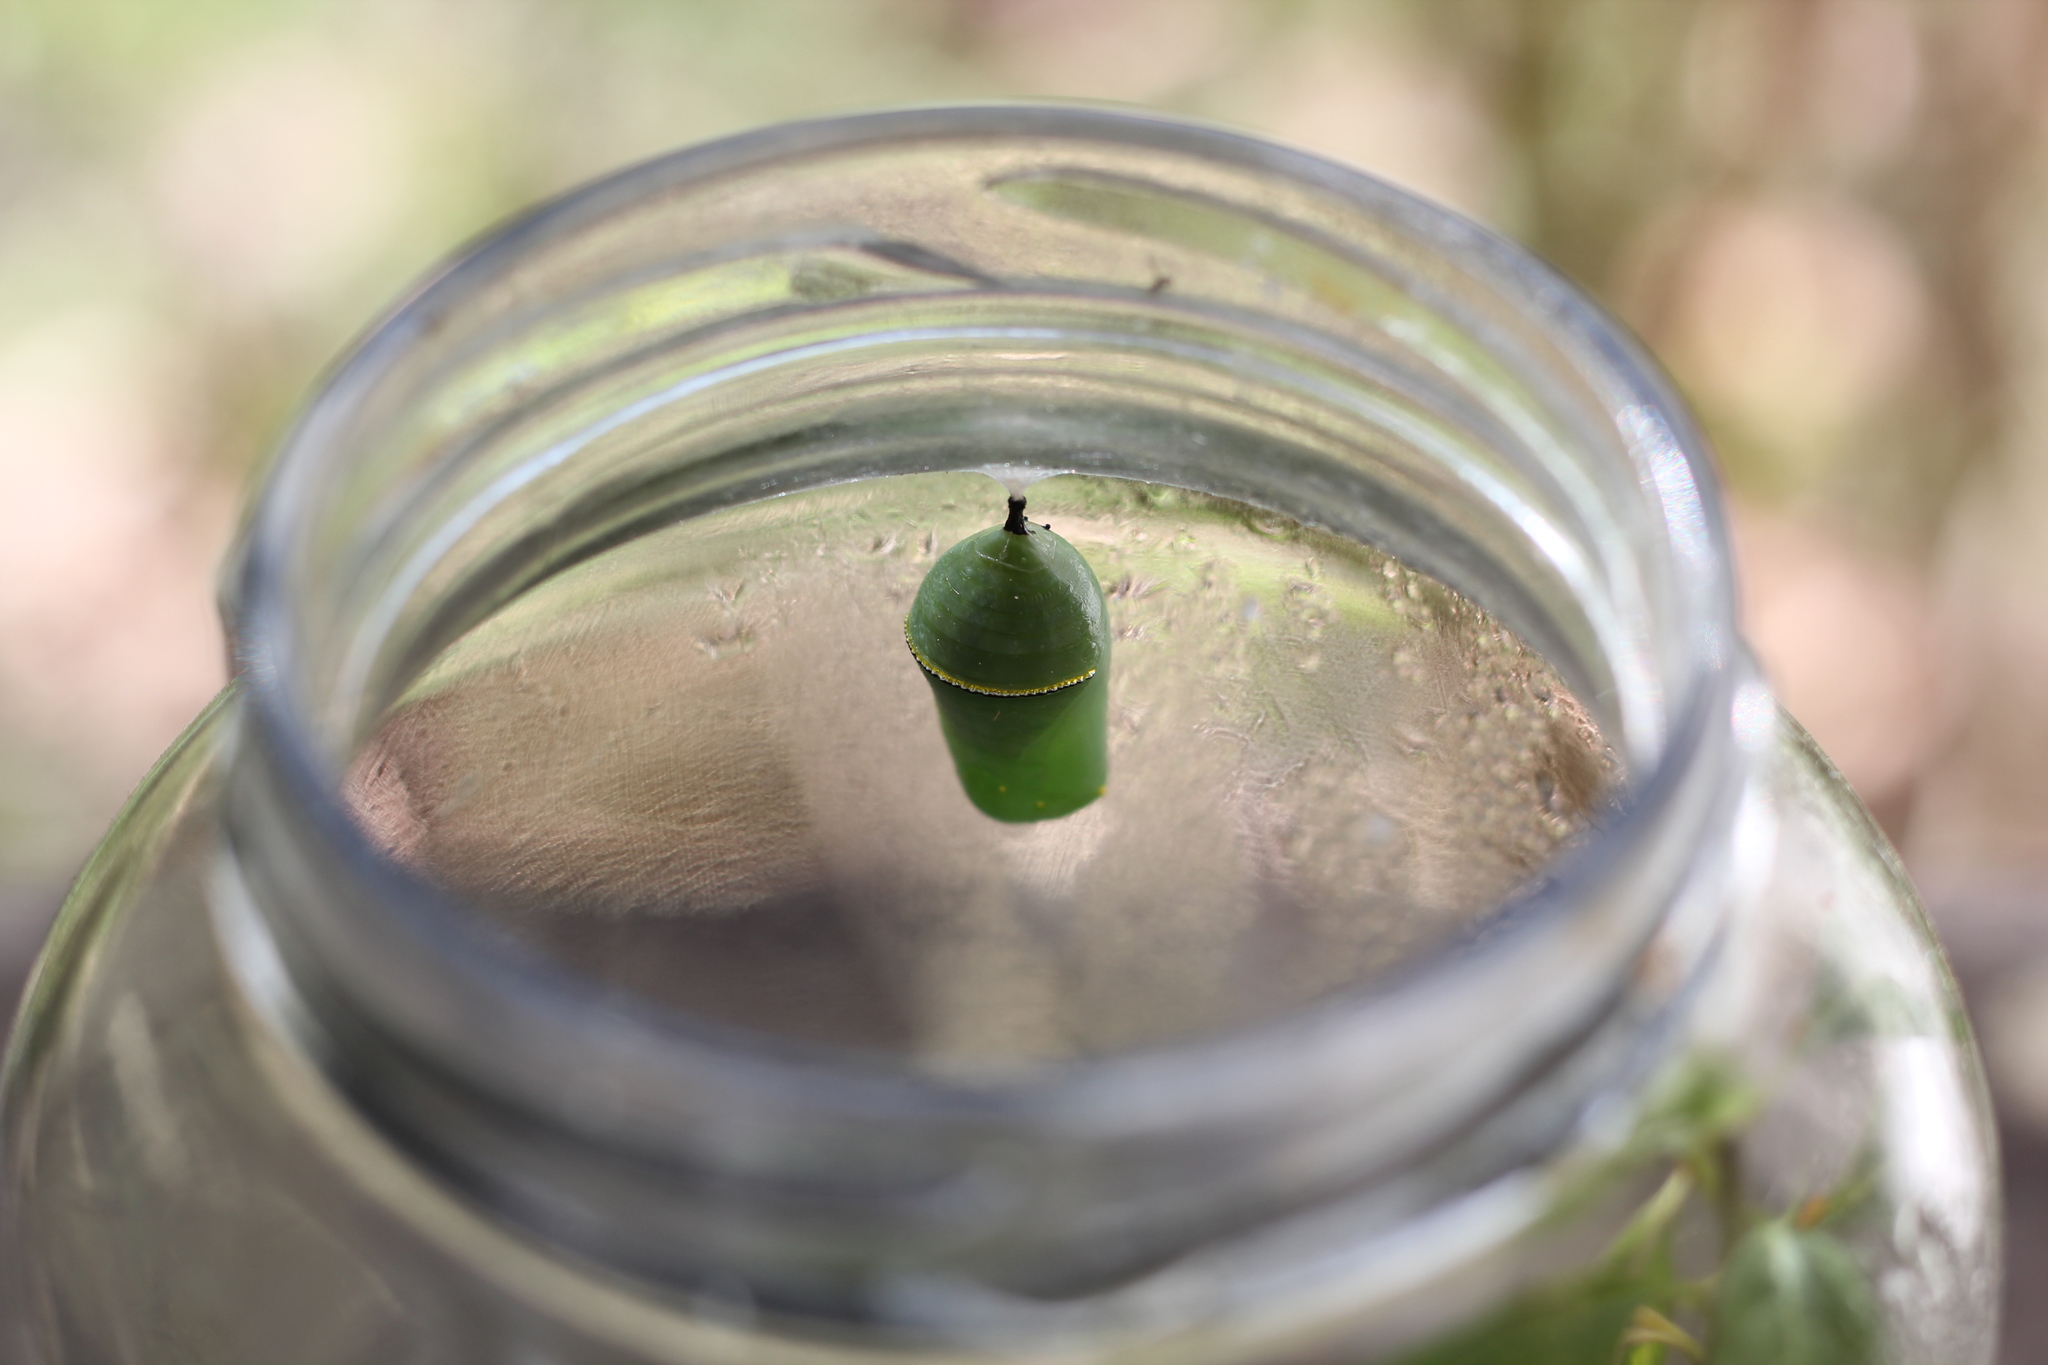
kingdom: Animalia
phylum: Arthropoda
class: Insecta
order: Lepidoptera
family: Nymphalidae
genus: Danaus
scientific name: Danaus erippus
